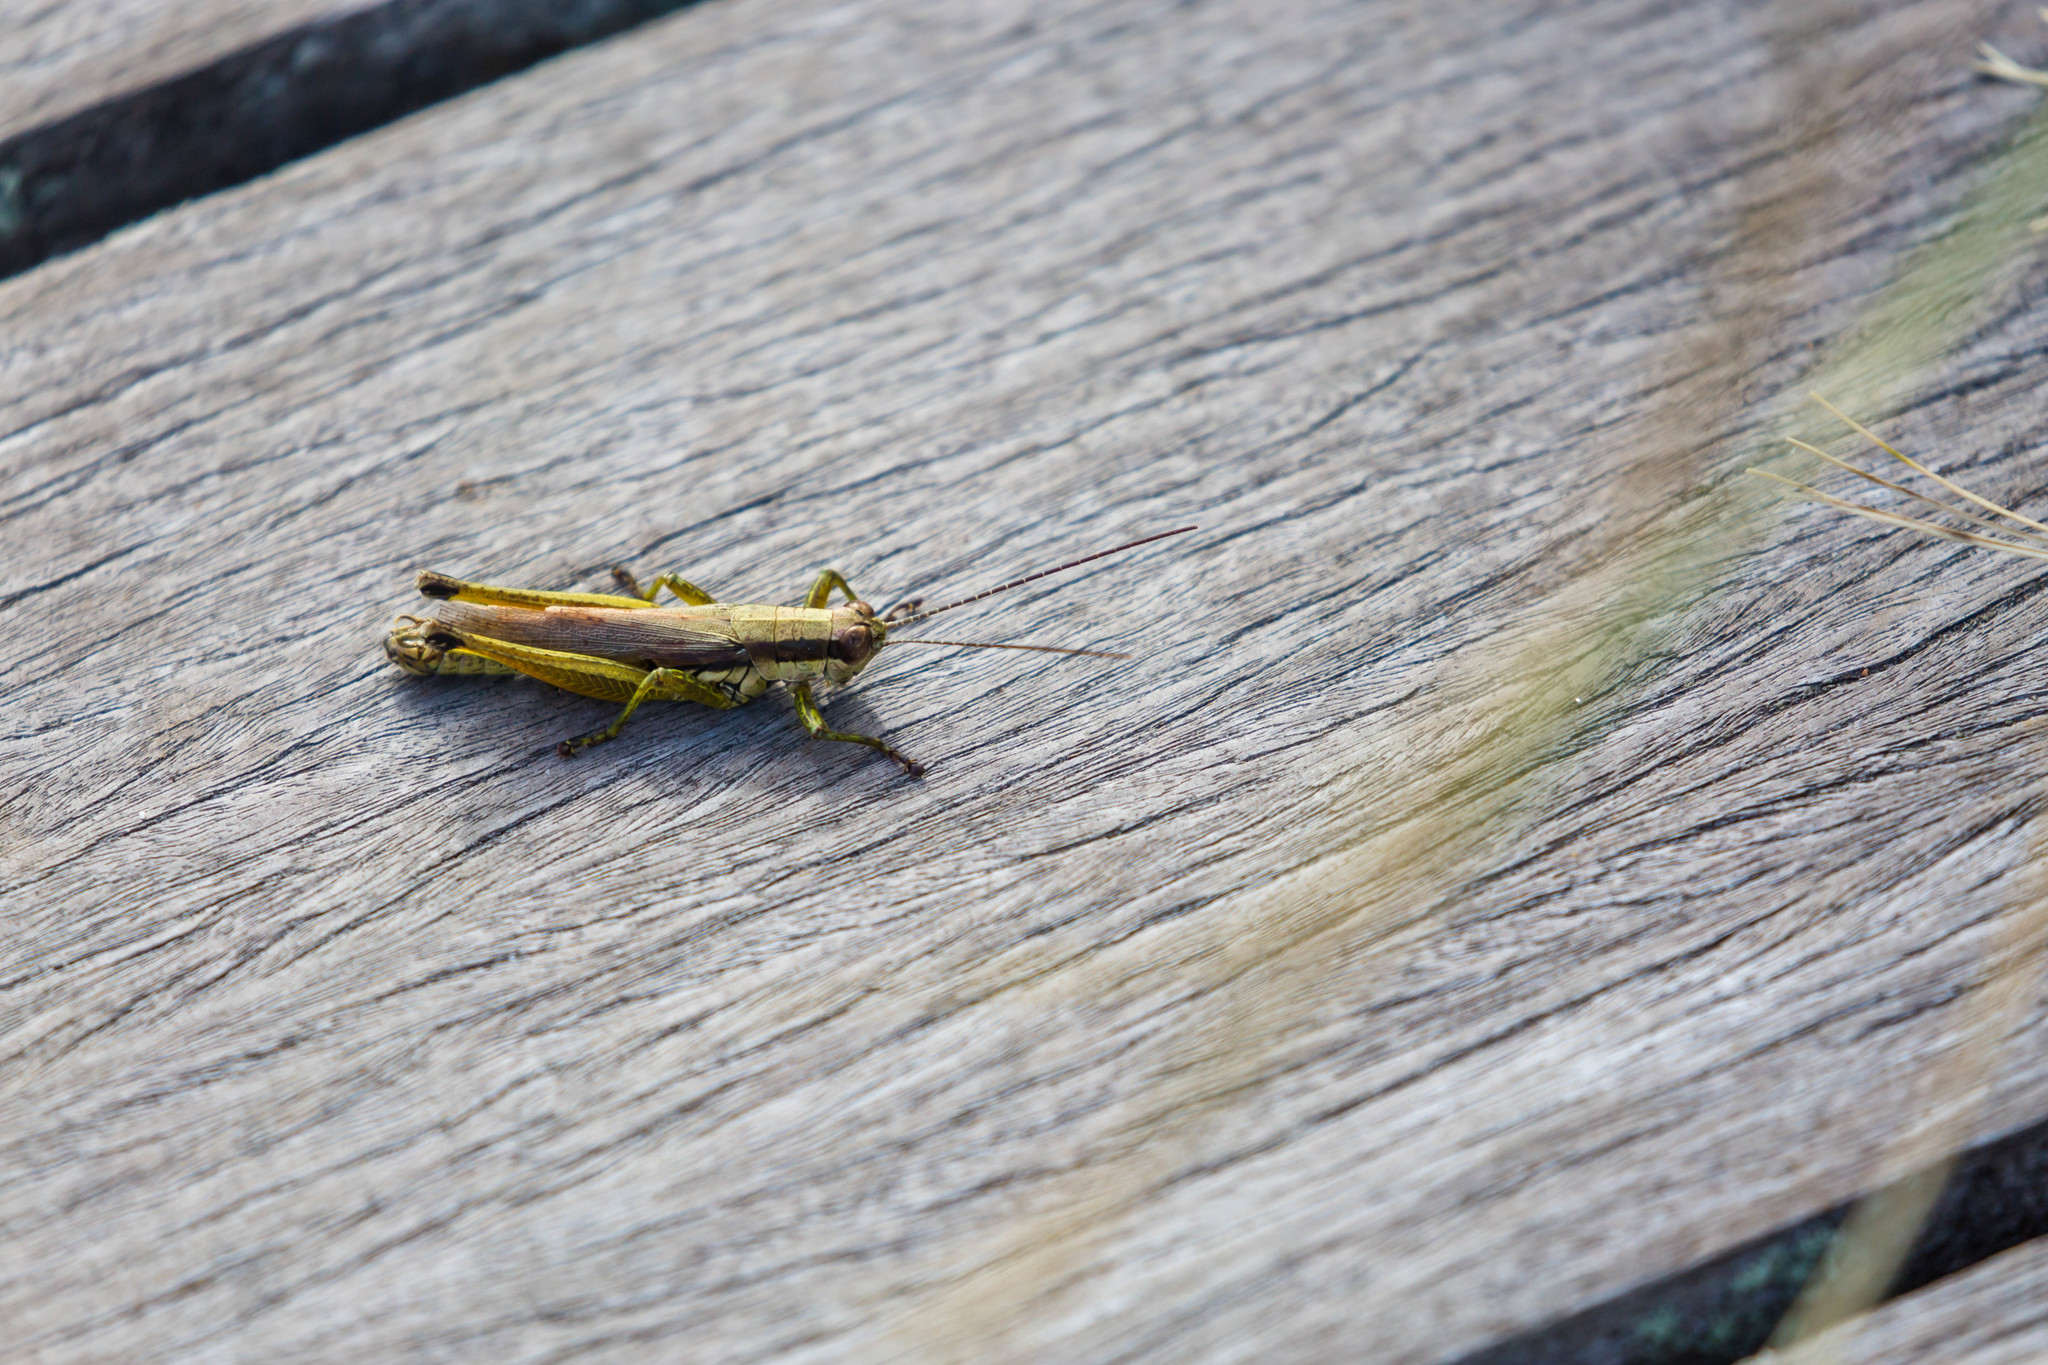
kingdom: Animalia
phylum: Arthropoda
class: Insecta
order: Orthoptera
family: Acrididae
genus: Paroxya
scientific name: Paroxya clavuligera
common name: Olive-green swamp grasshopper
